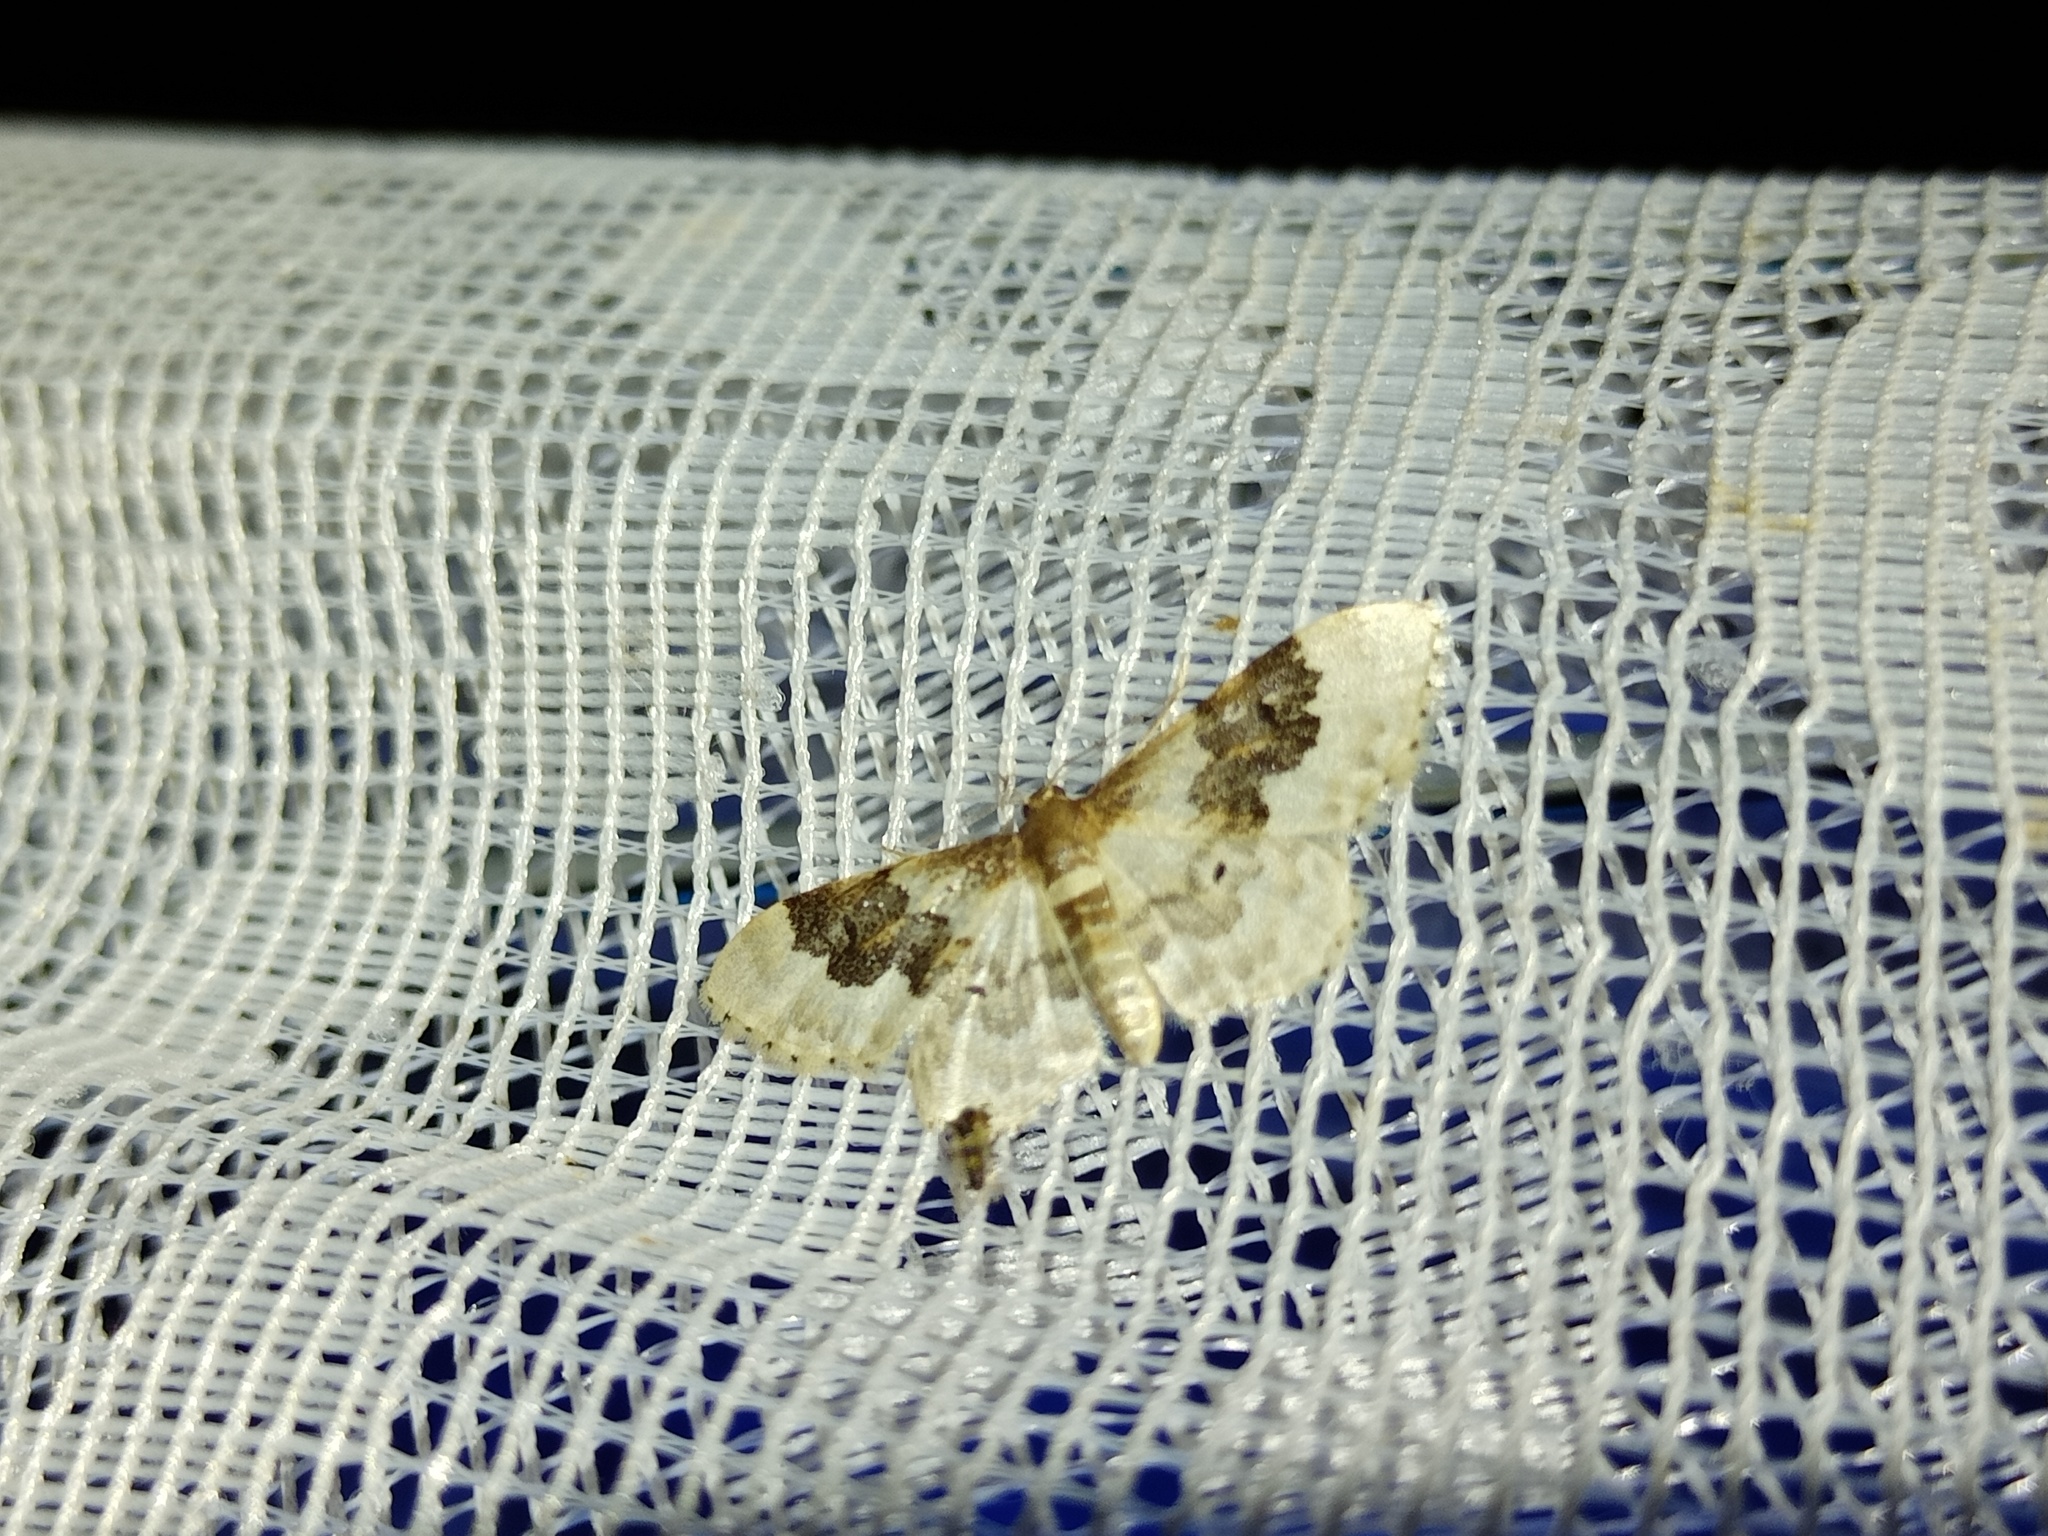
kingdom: Animalia
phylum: Arthropoda
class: Insecta
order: Lepidoptera
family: Geometridae
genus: Idaea
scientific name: Idaea rusticata
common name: Least carpet
